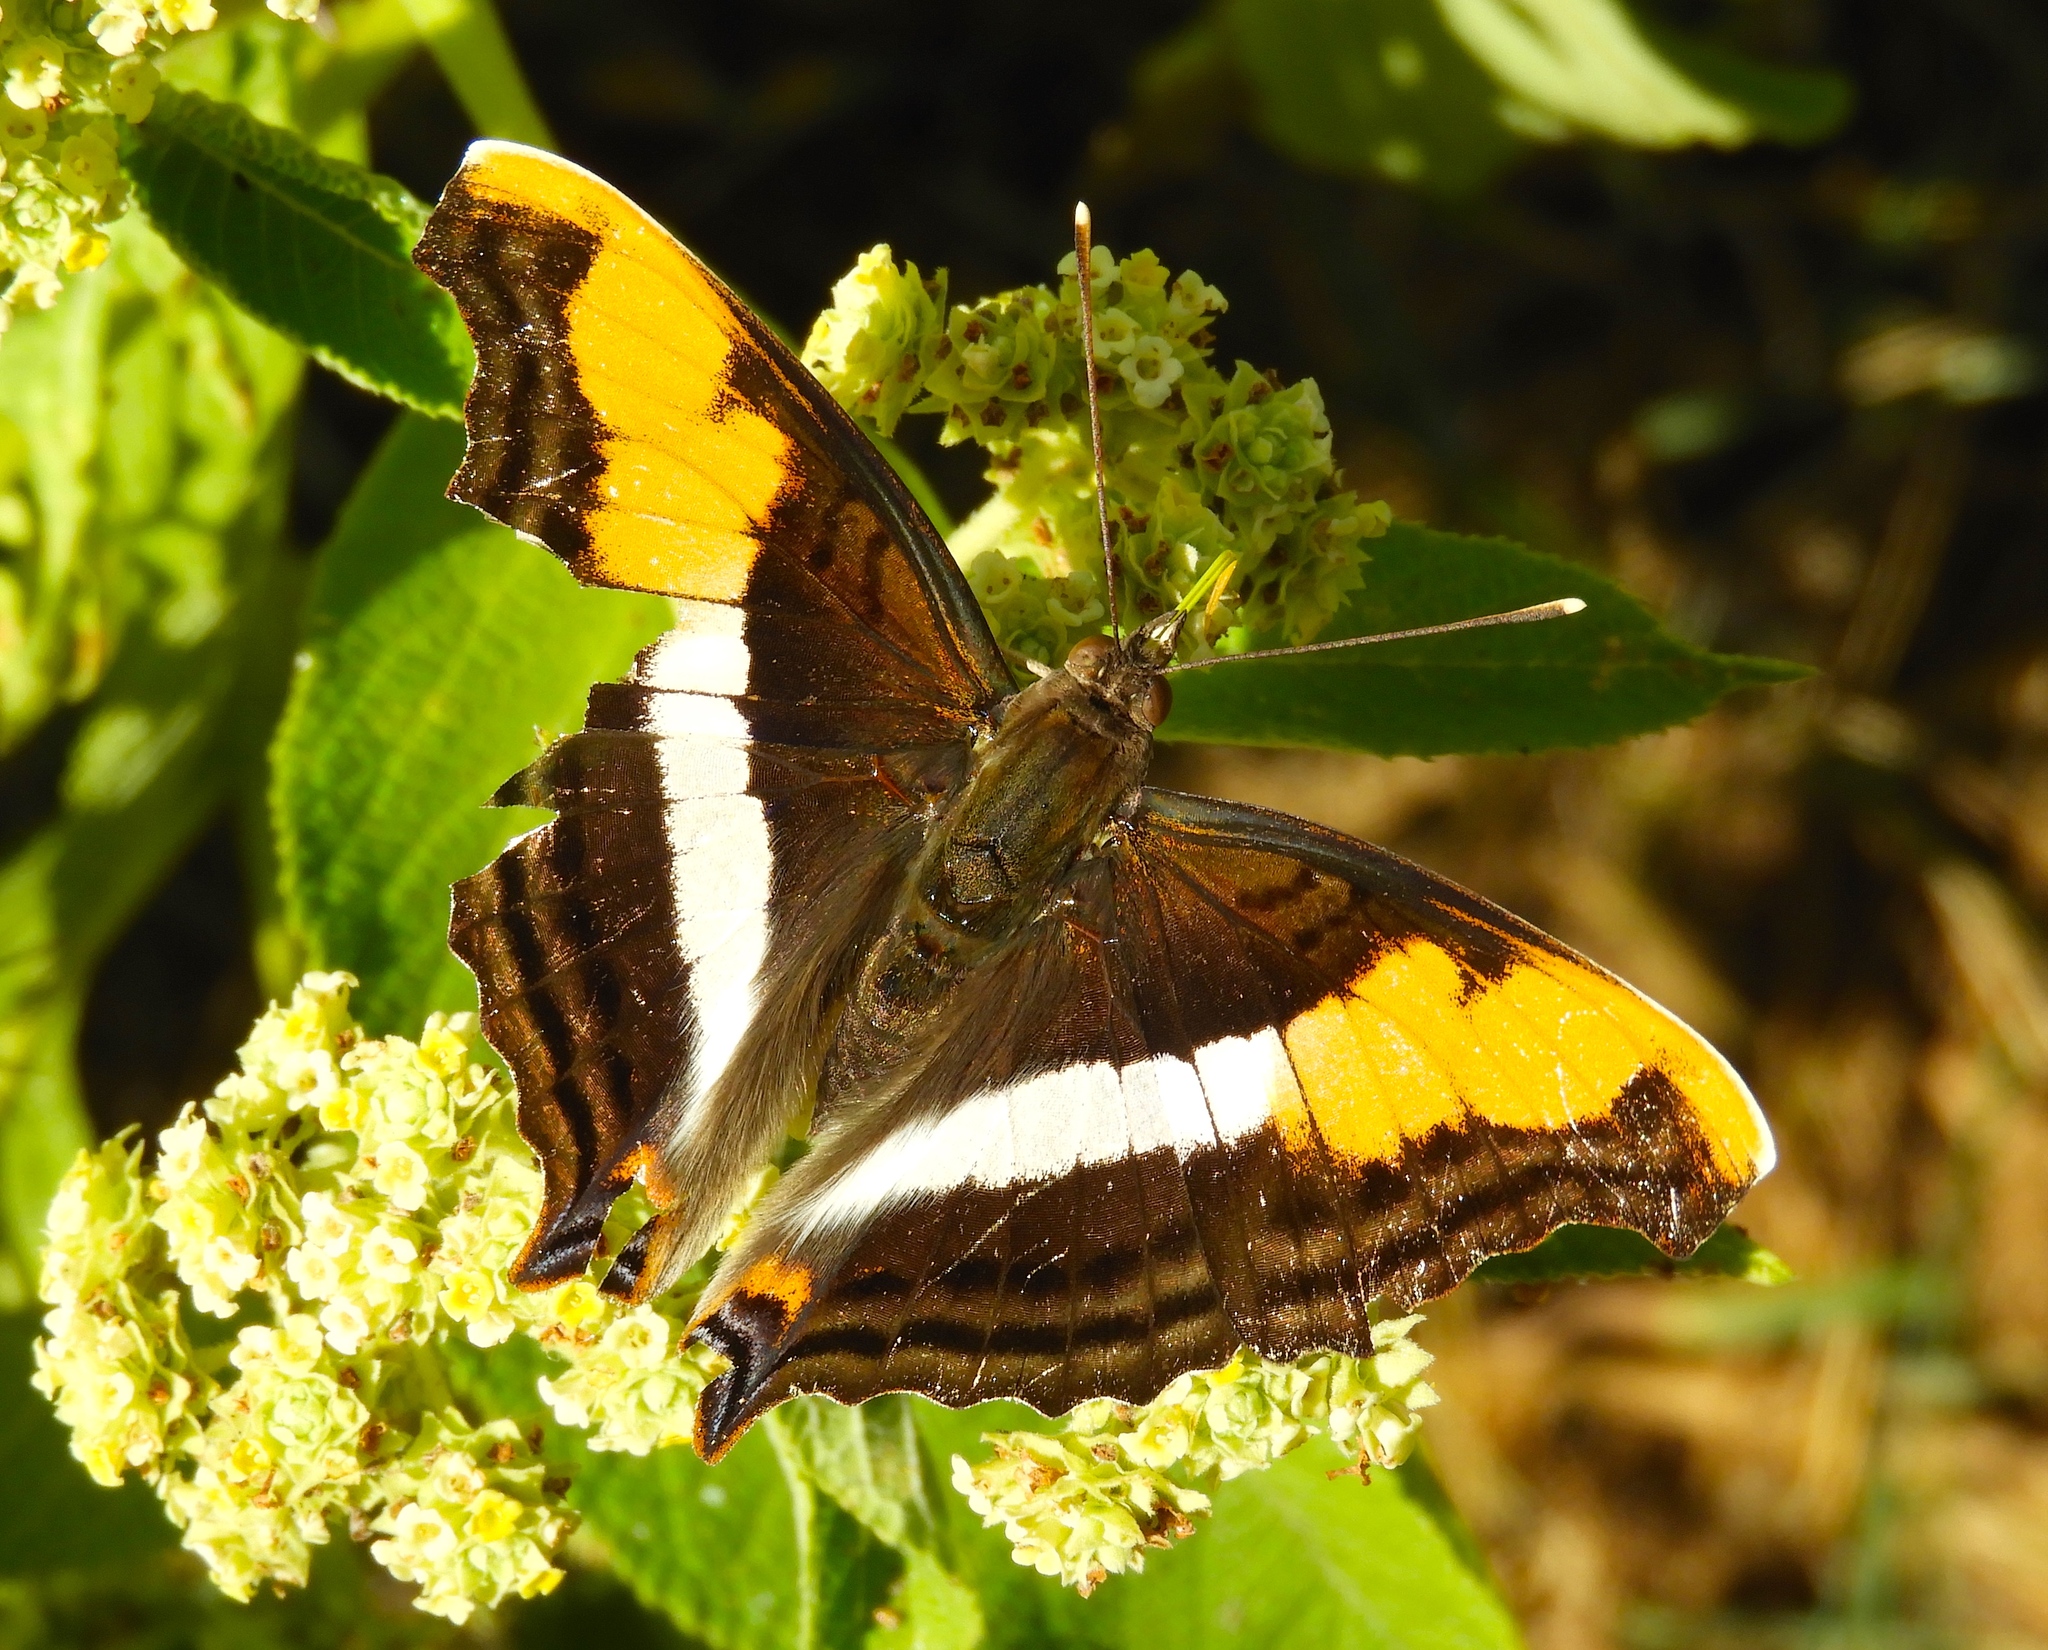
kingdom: Animalia
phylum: Arthropoda
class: Insecta
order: Lepidoptera
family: Nymphalidae
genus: Doxocopa
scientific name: Doxocopa laure
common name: Silver emperor
